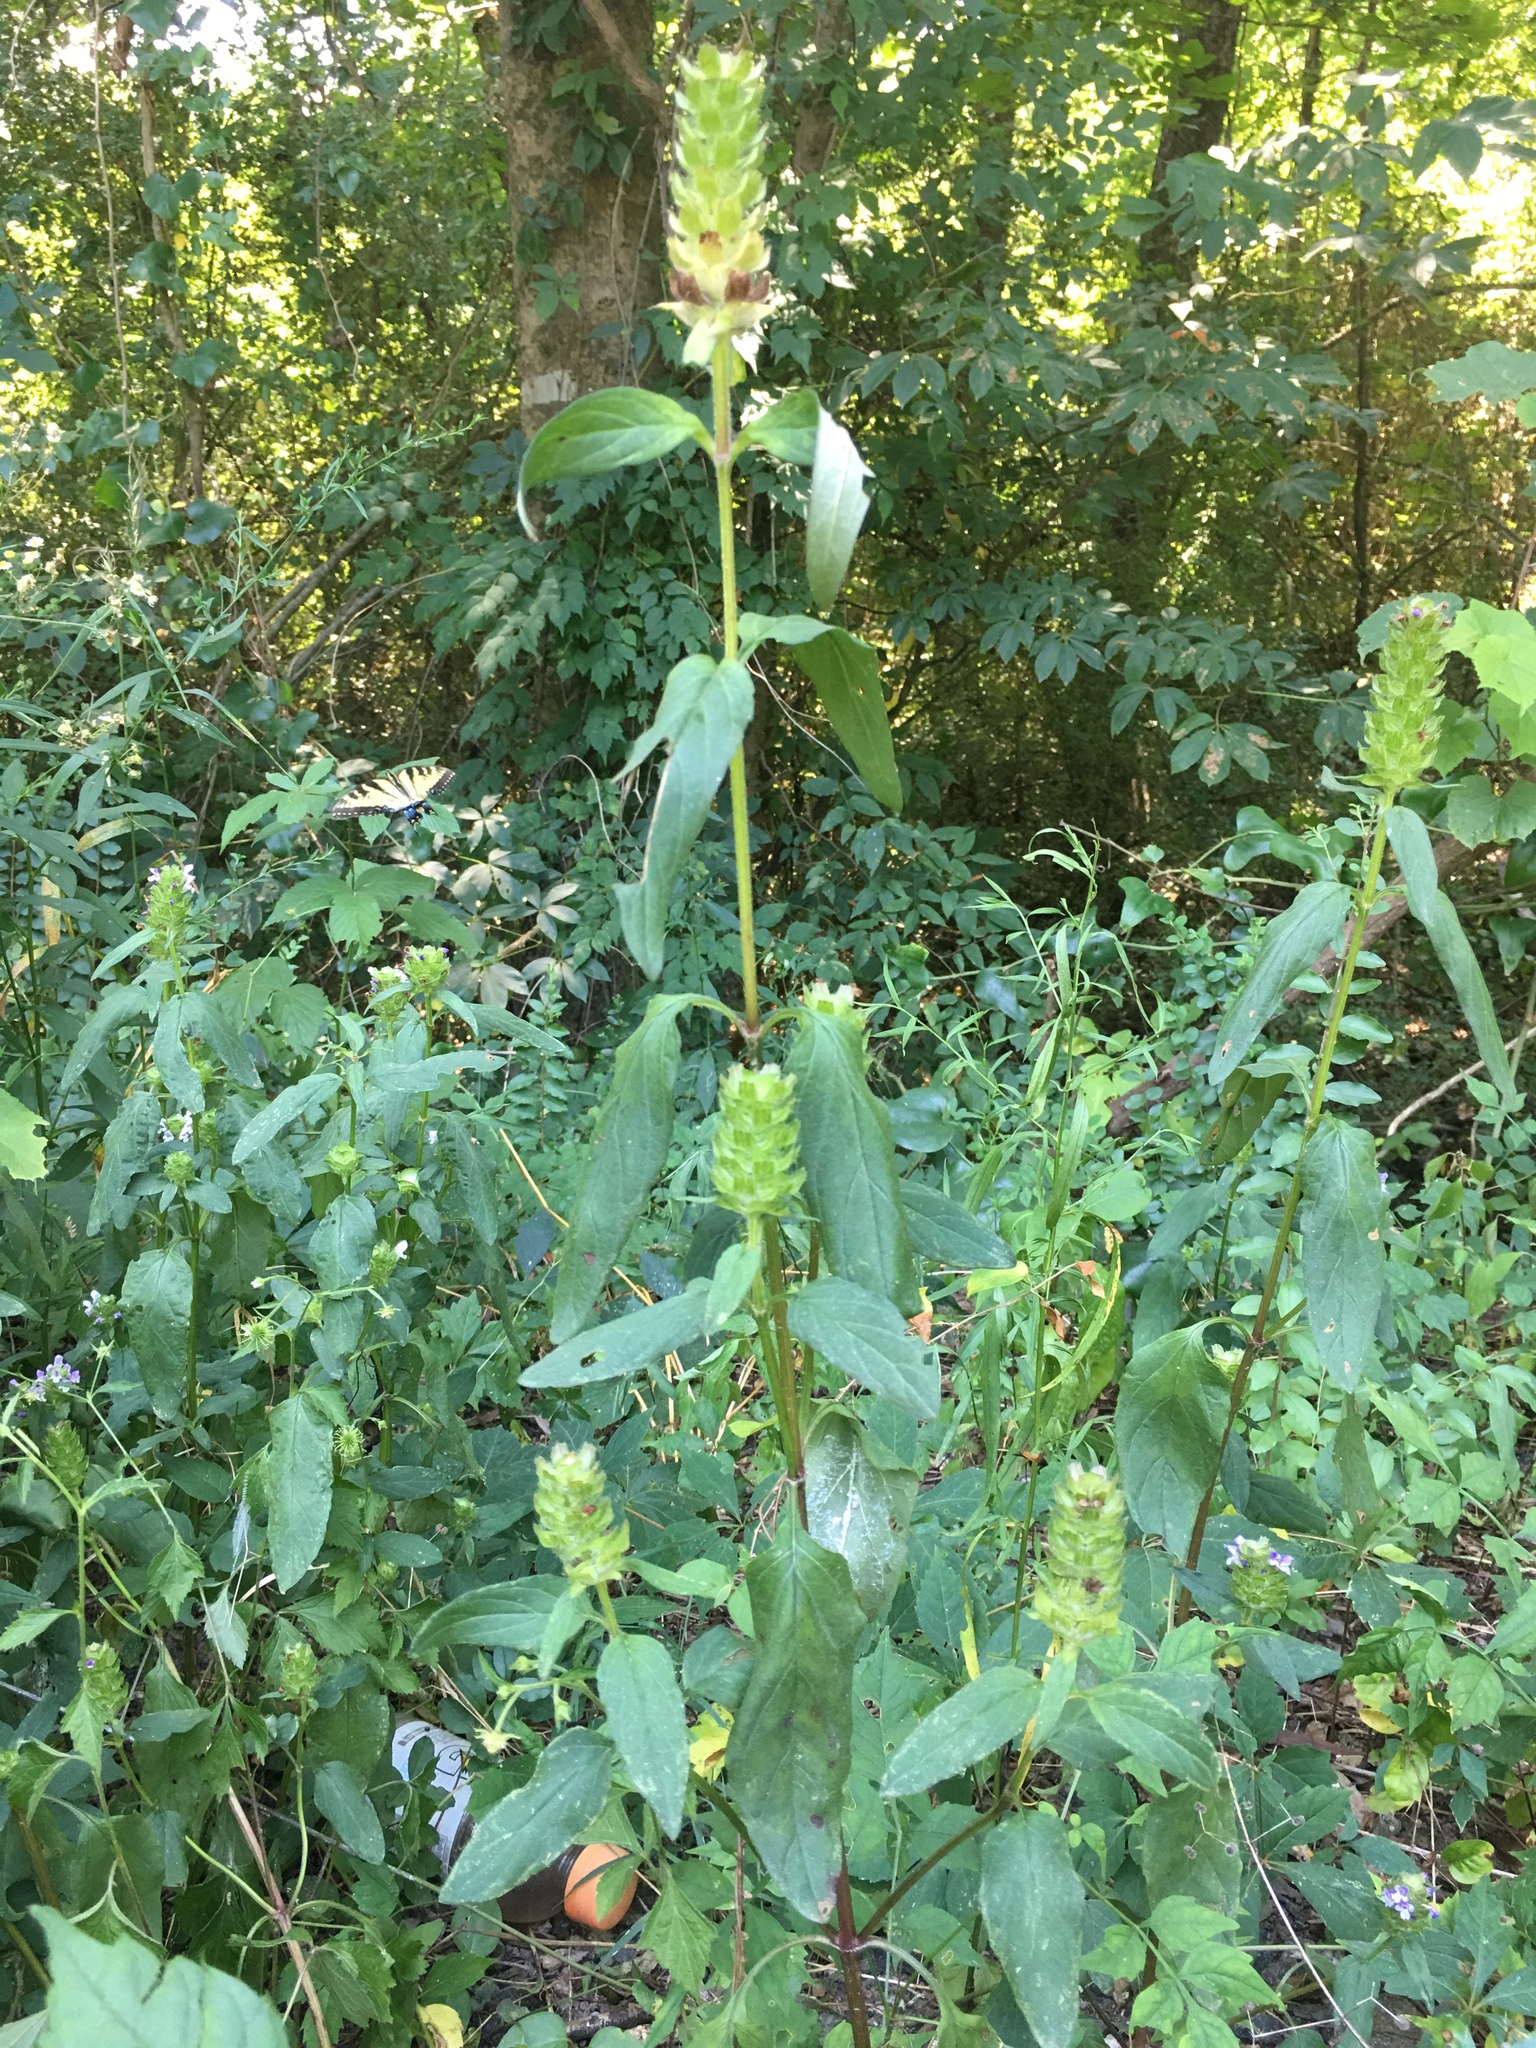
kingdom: Plantae
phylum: Tracheophyta
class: Magnoliopsida
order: Lamiales
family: Lamiaceae
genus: Prunella
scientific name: Prunella vulgaris
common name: Heal-all
